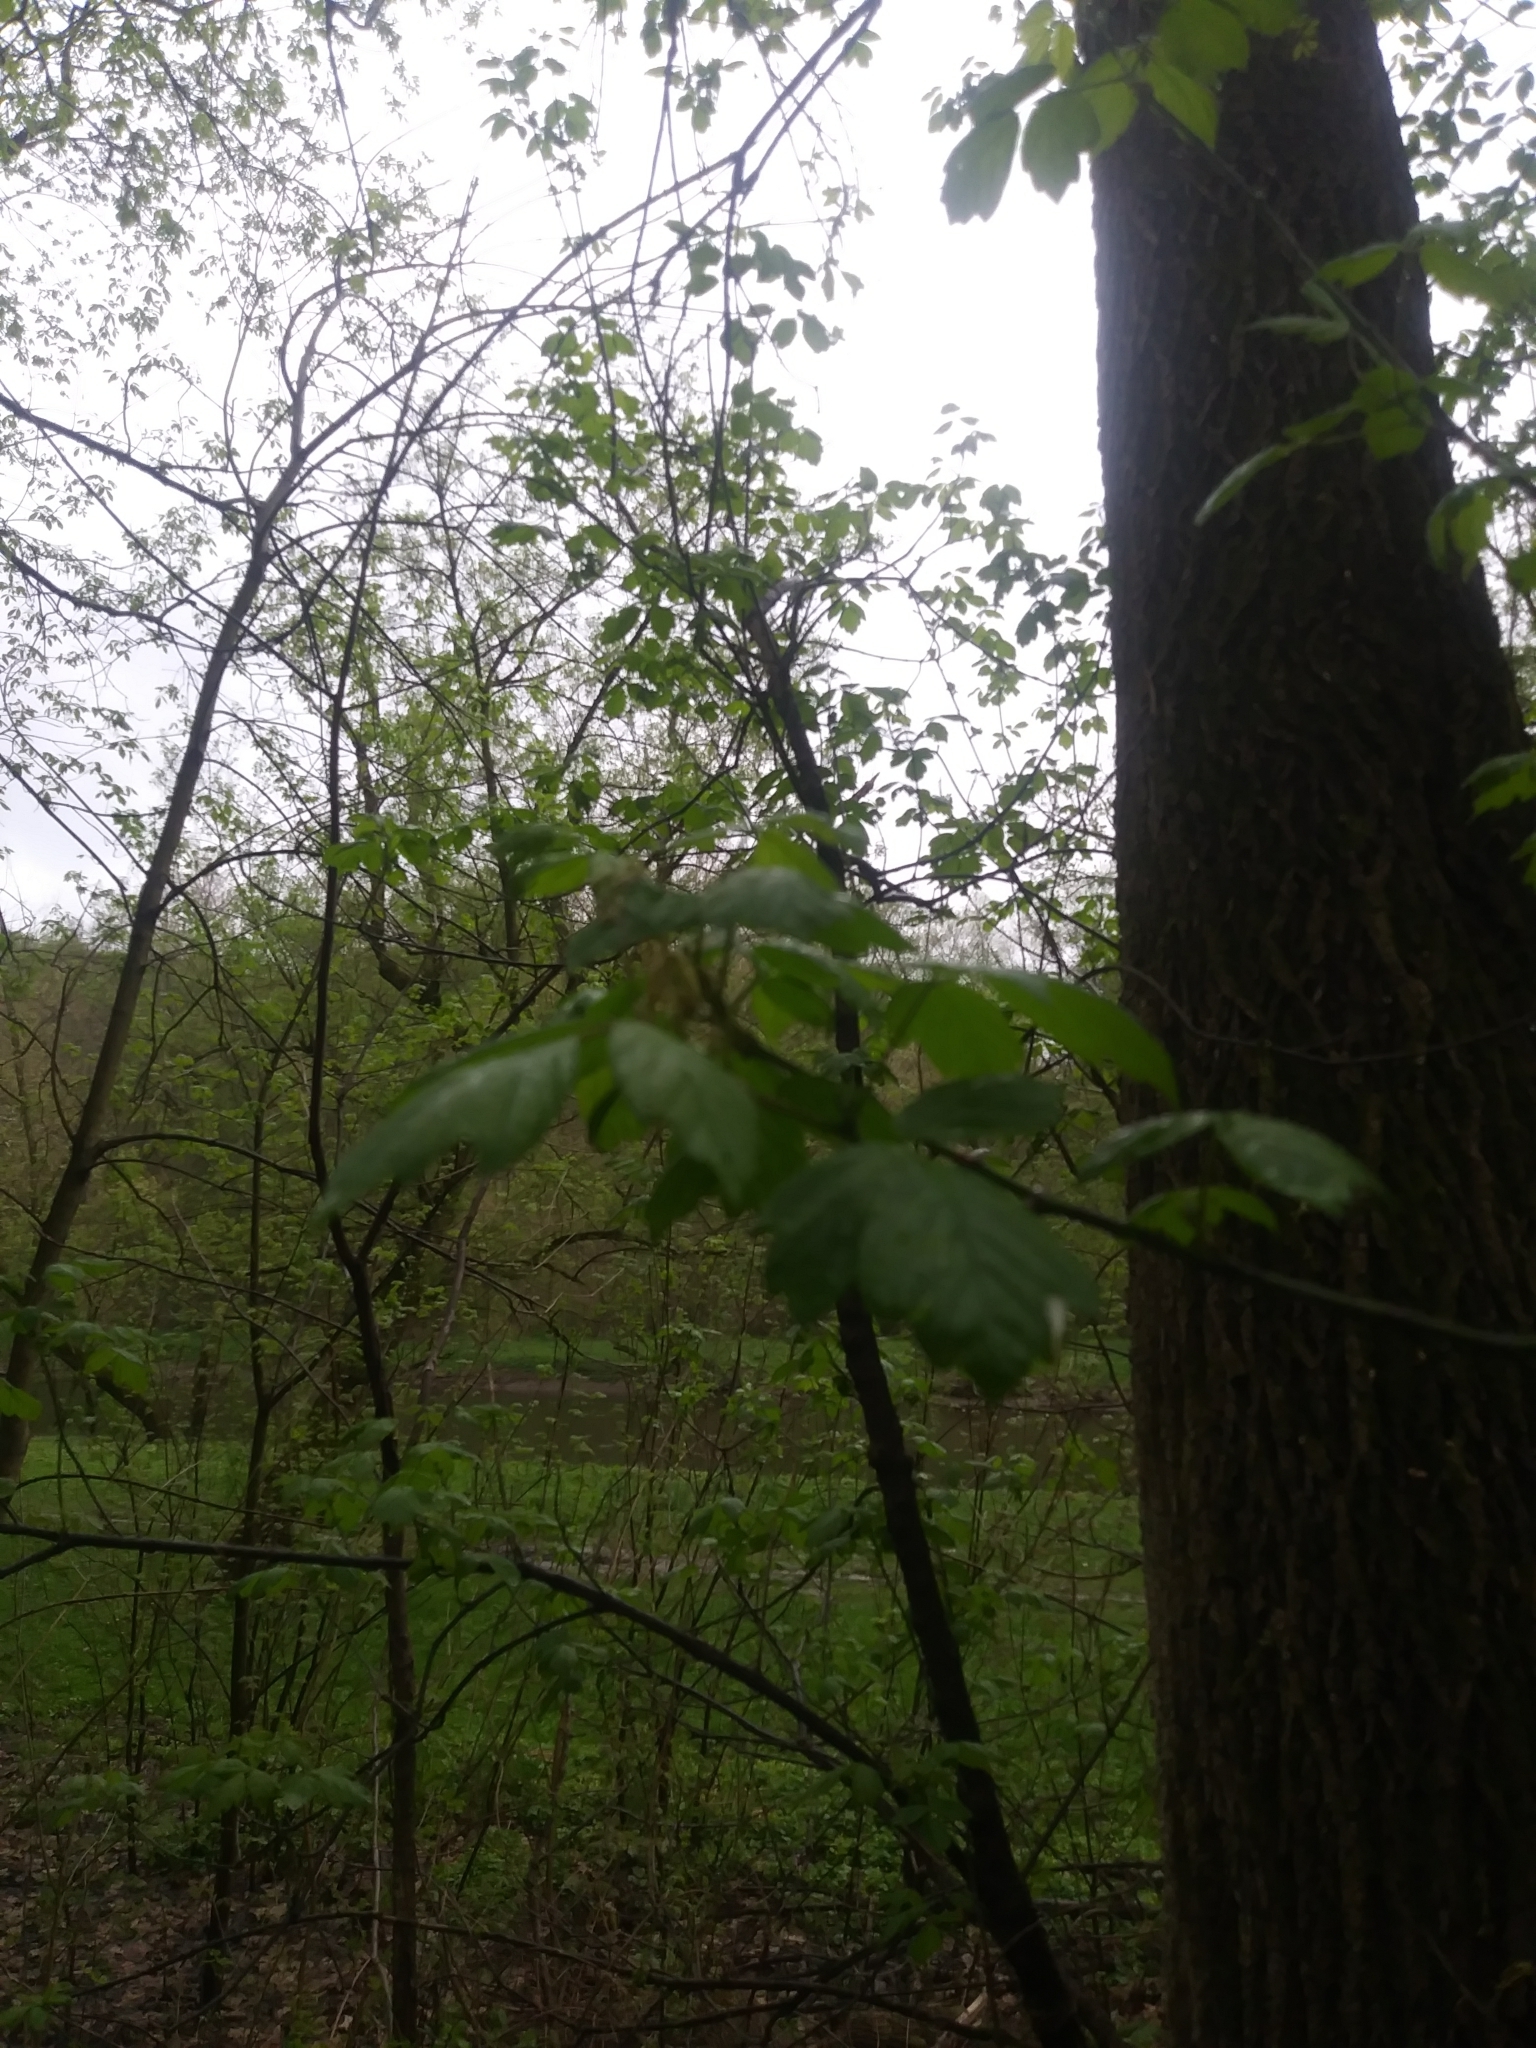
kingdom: Plantae
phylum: Tracheophyta
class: Magnoliopsida
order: Sapindales
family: Sapindaceae
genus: Acer
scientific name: Acer negundo
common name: Ashleaf maple
